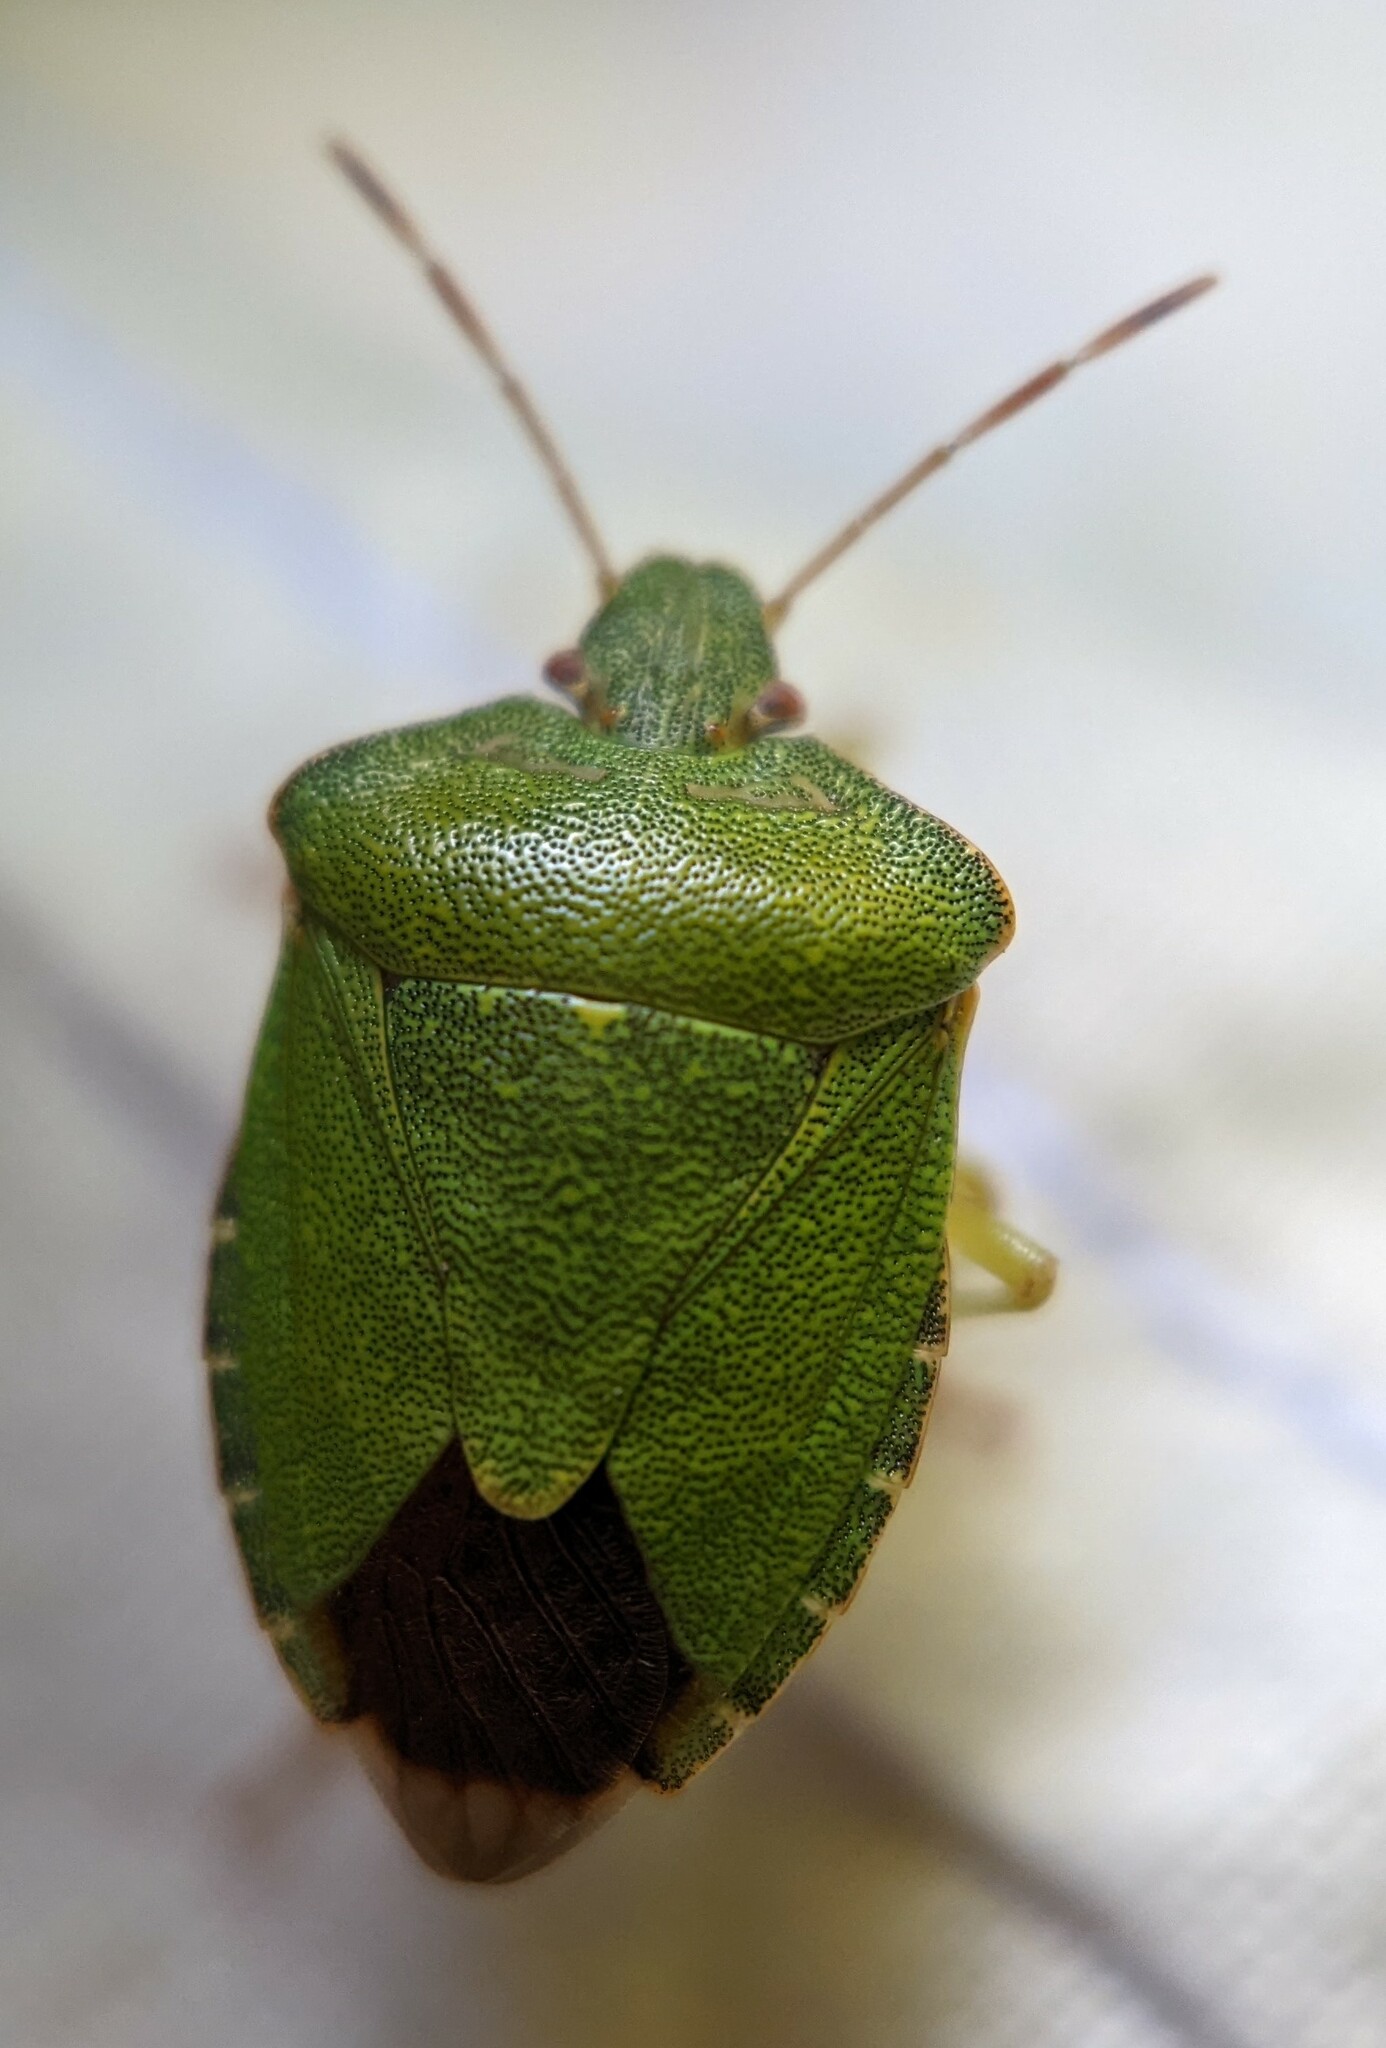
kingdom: Animalia
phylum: Arthropoda
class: Insecta
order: Hemiptera
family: Pentatomidae
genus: Palomena
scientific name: Palomena prasina
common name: Green shieldbug
